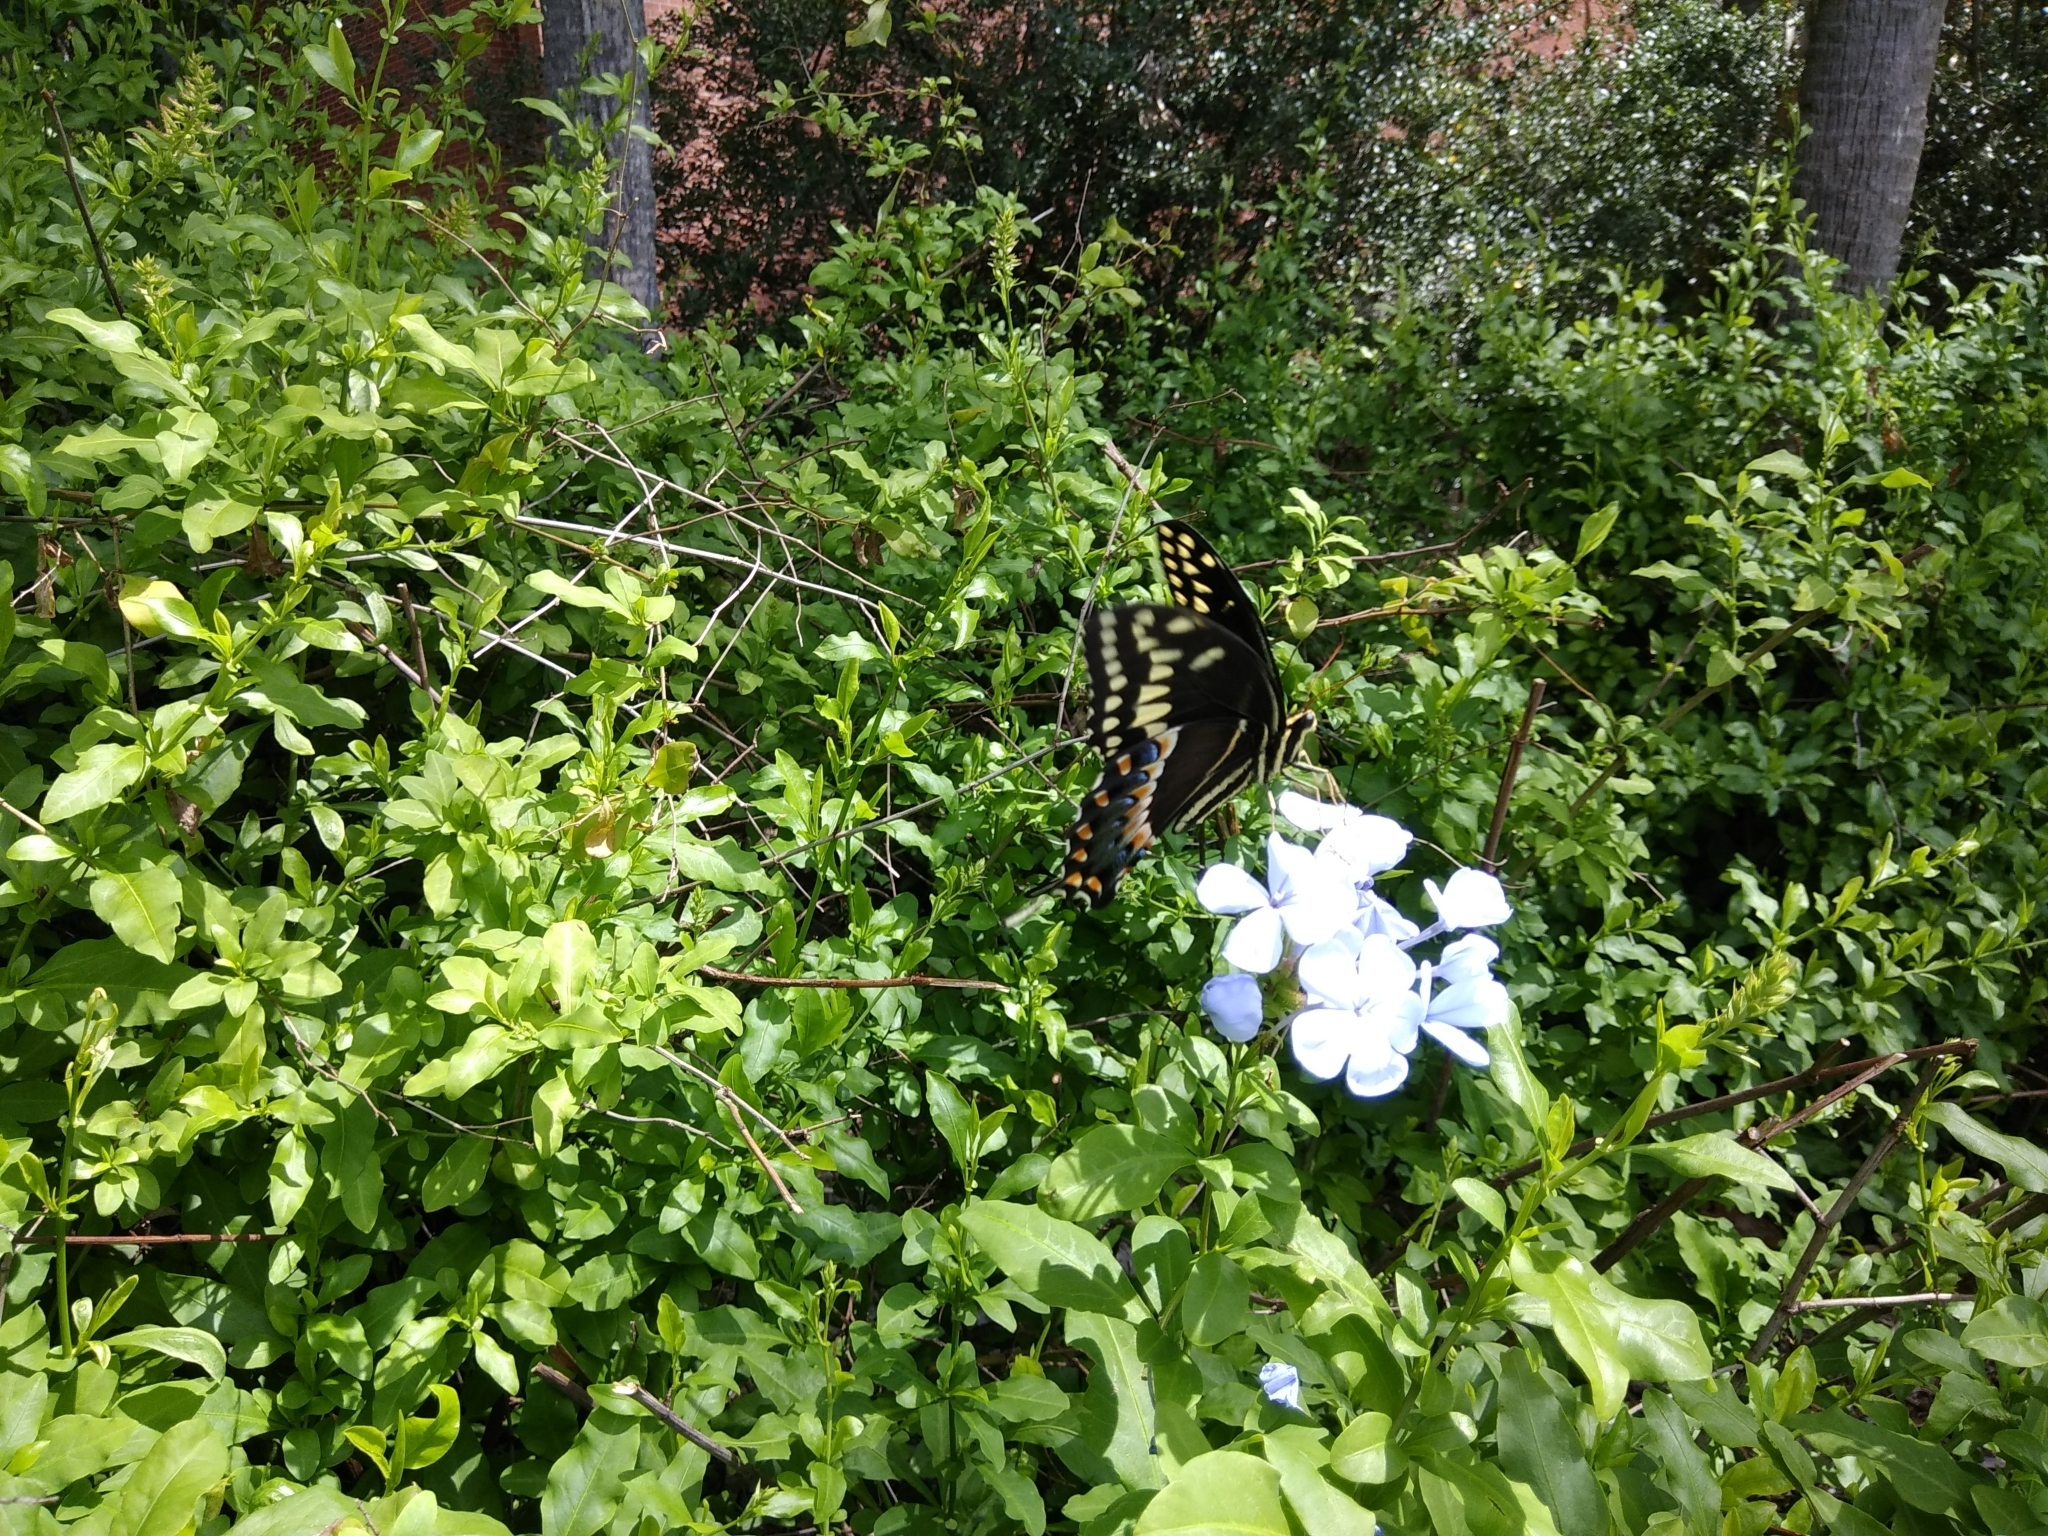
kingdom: Animalia
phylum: Arthropoda
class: Insecta
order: Lepidoptera
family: Papilionidae
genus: Papilio
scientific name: Papilio palamedes
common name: Palamedes swallowtail
